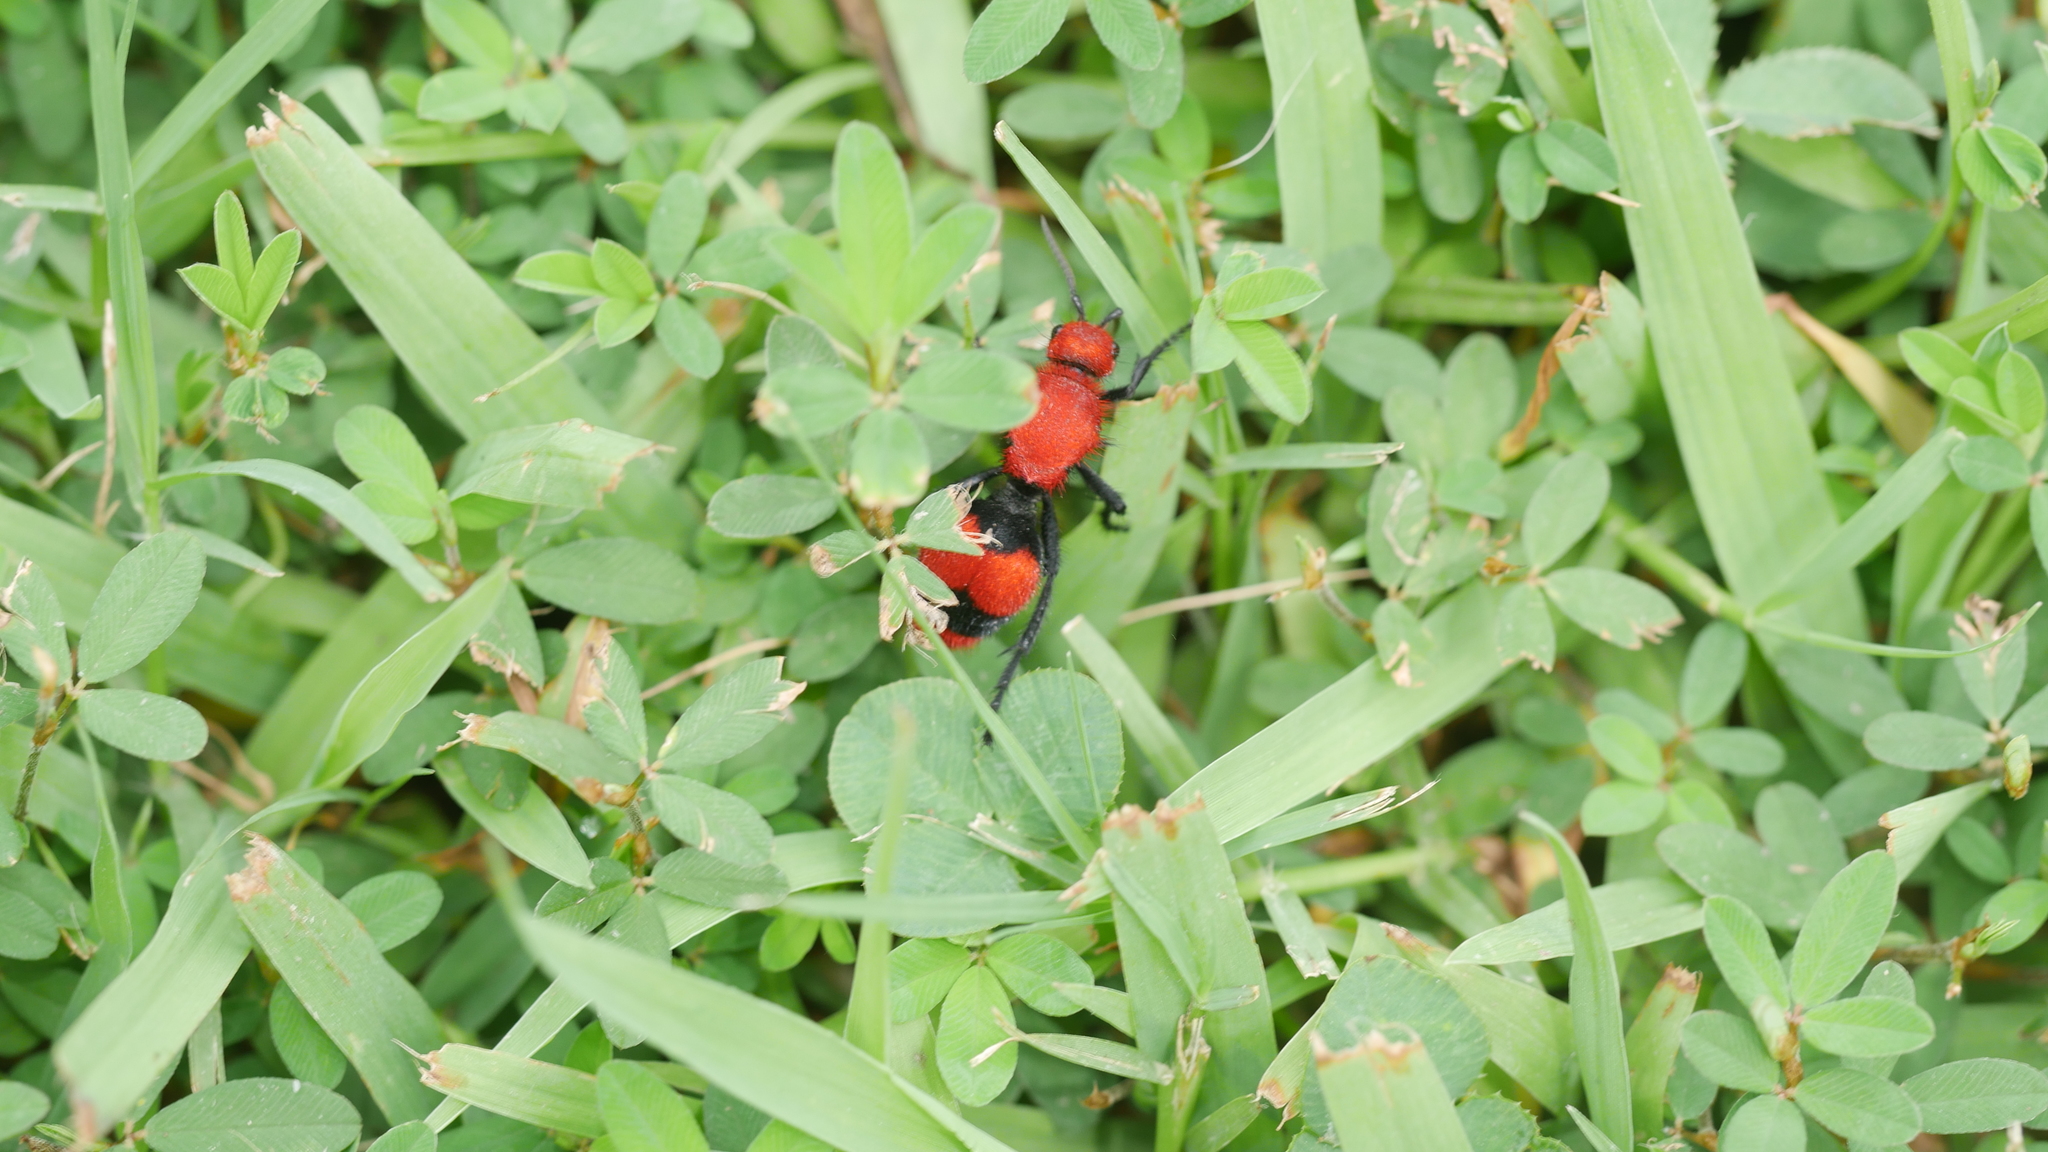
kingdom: Animalia
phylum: Arthropoda
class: Insecta
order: Hymenoptera
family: Mutillidae
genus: Dasymutilla
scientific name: Dasymutilla occidentalis
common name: Common eastern velvet ant
